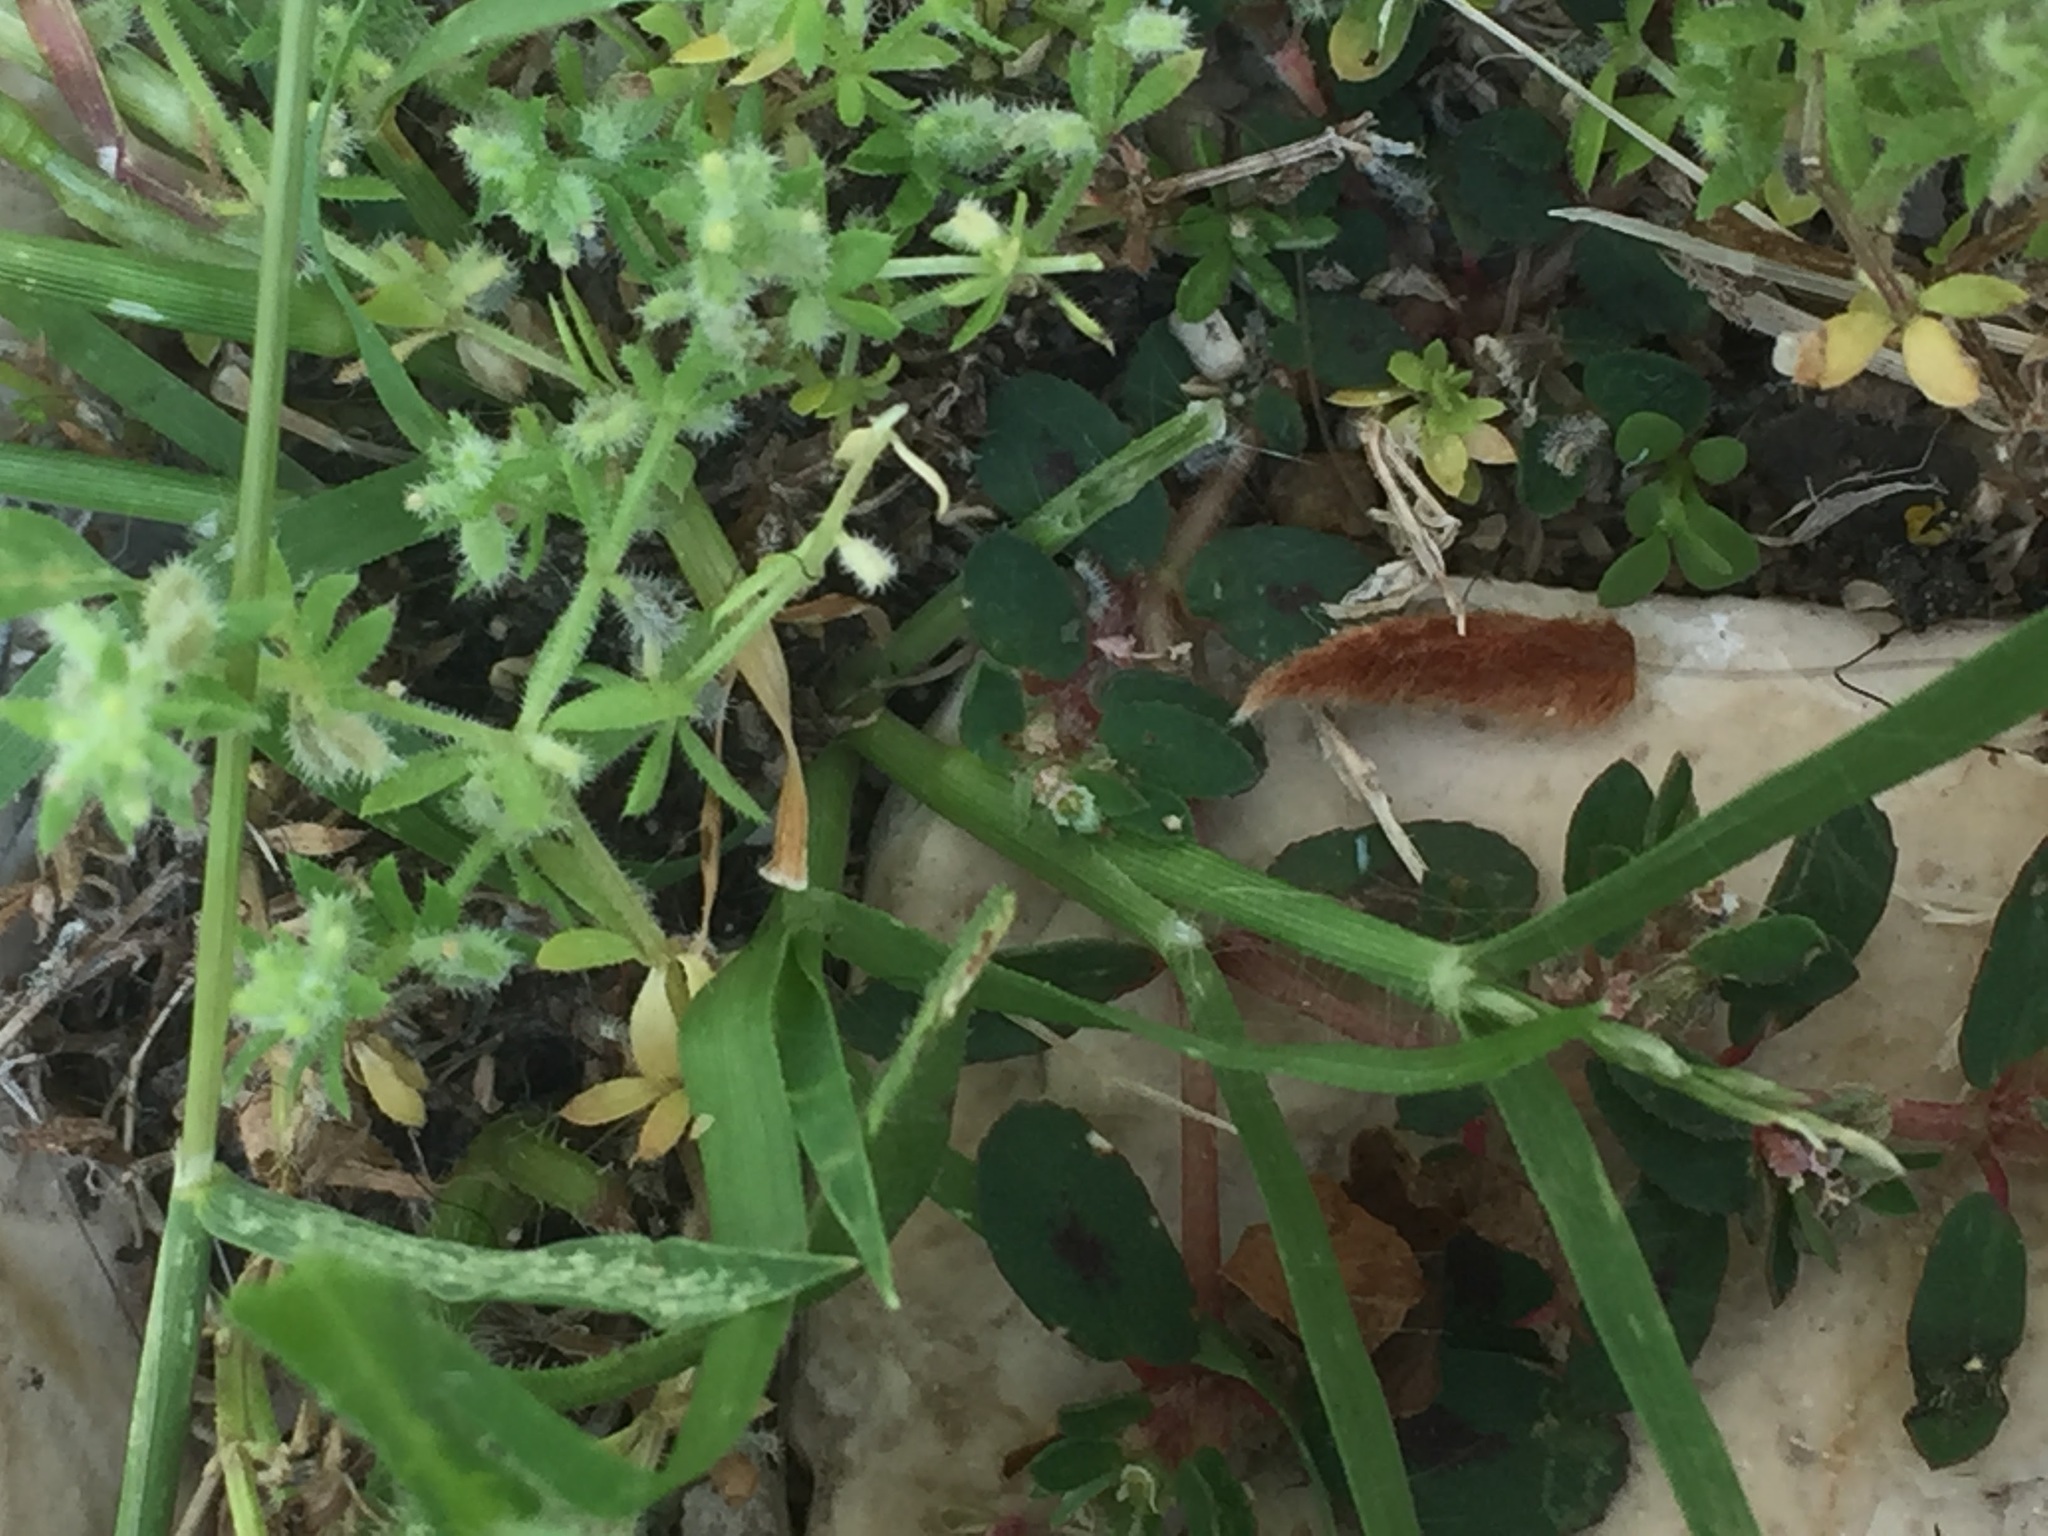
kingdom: Plantae
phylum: Tracheophyta
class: Magnoliopsida
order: Gentianales
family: Rubiaceae
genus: Galium
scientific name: Galium murale
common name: Yellow wall bedstraw
